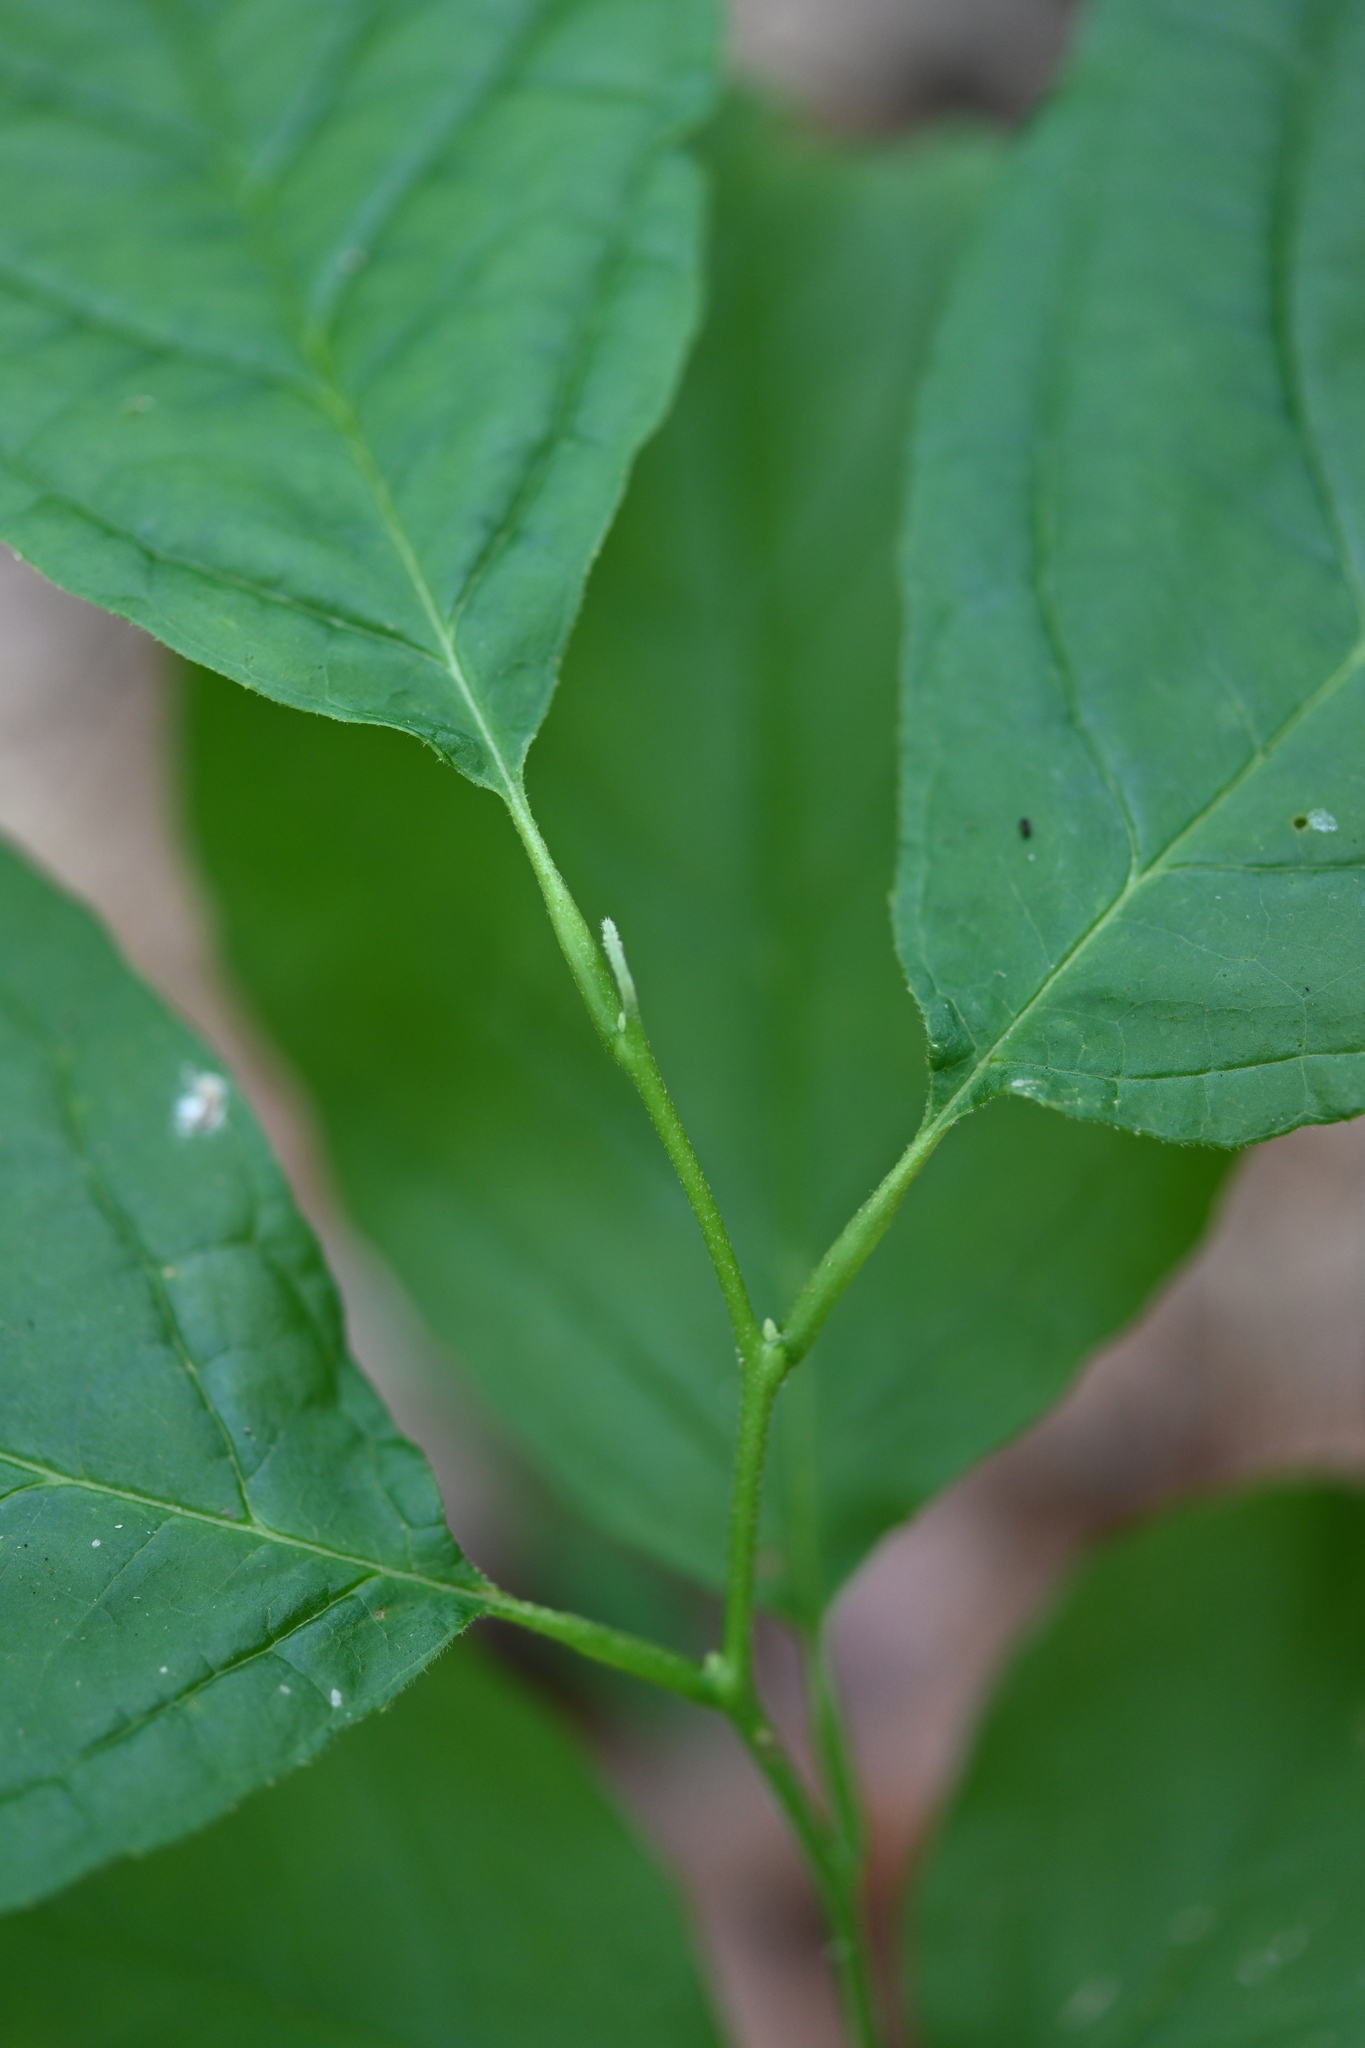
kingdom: Plantae
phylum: Tracheophyta
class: Magnoliopsida
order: Ericales
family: Styracaceae
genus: Halesia
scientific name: Halesia diptera
